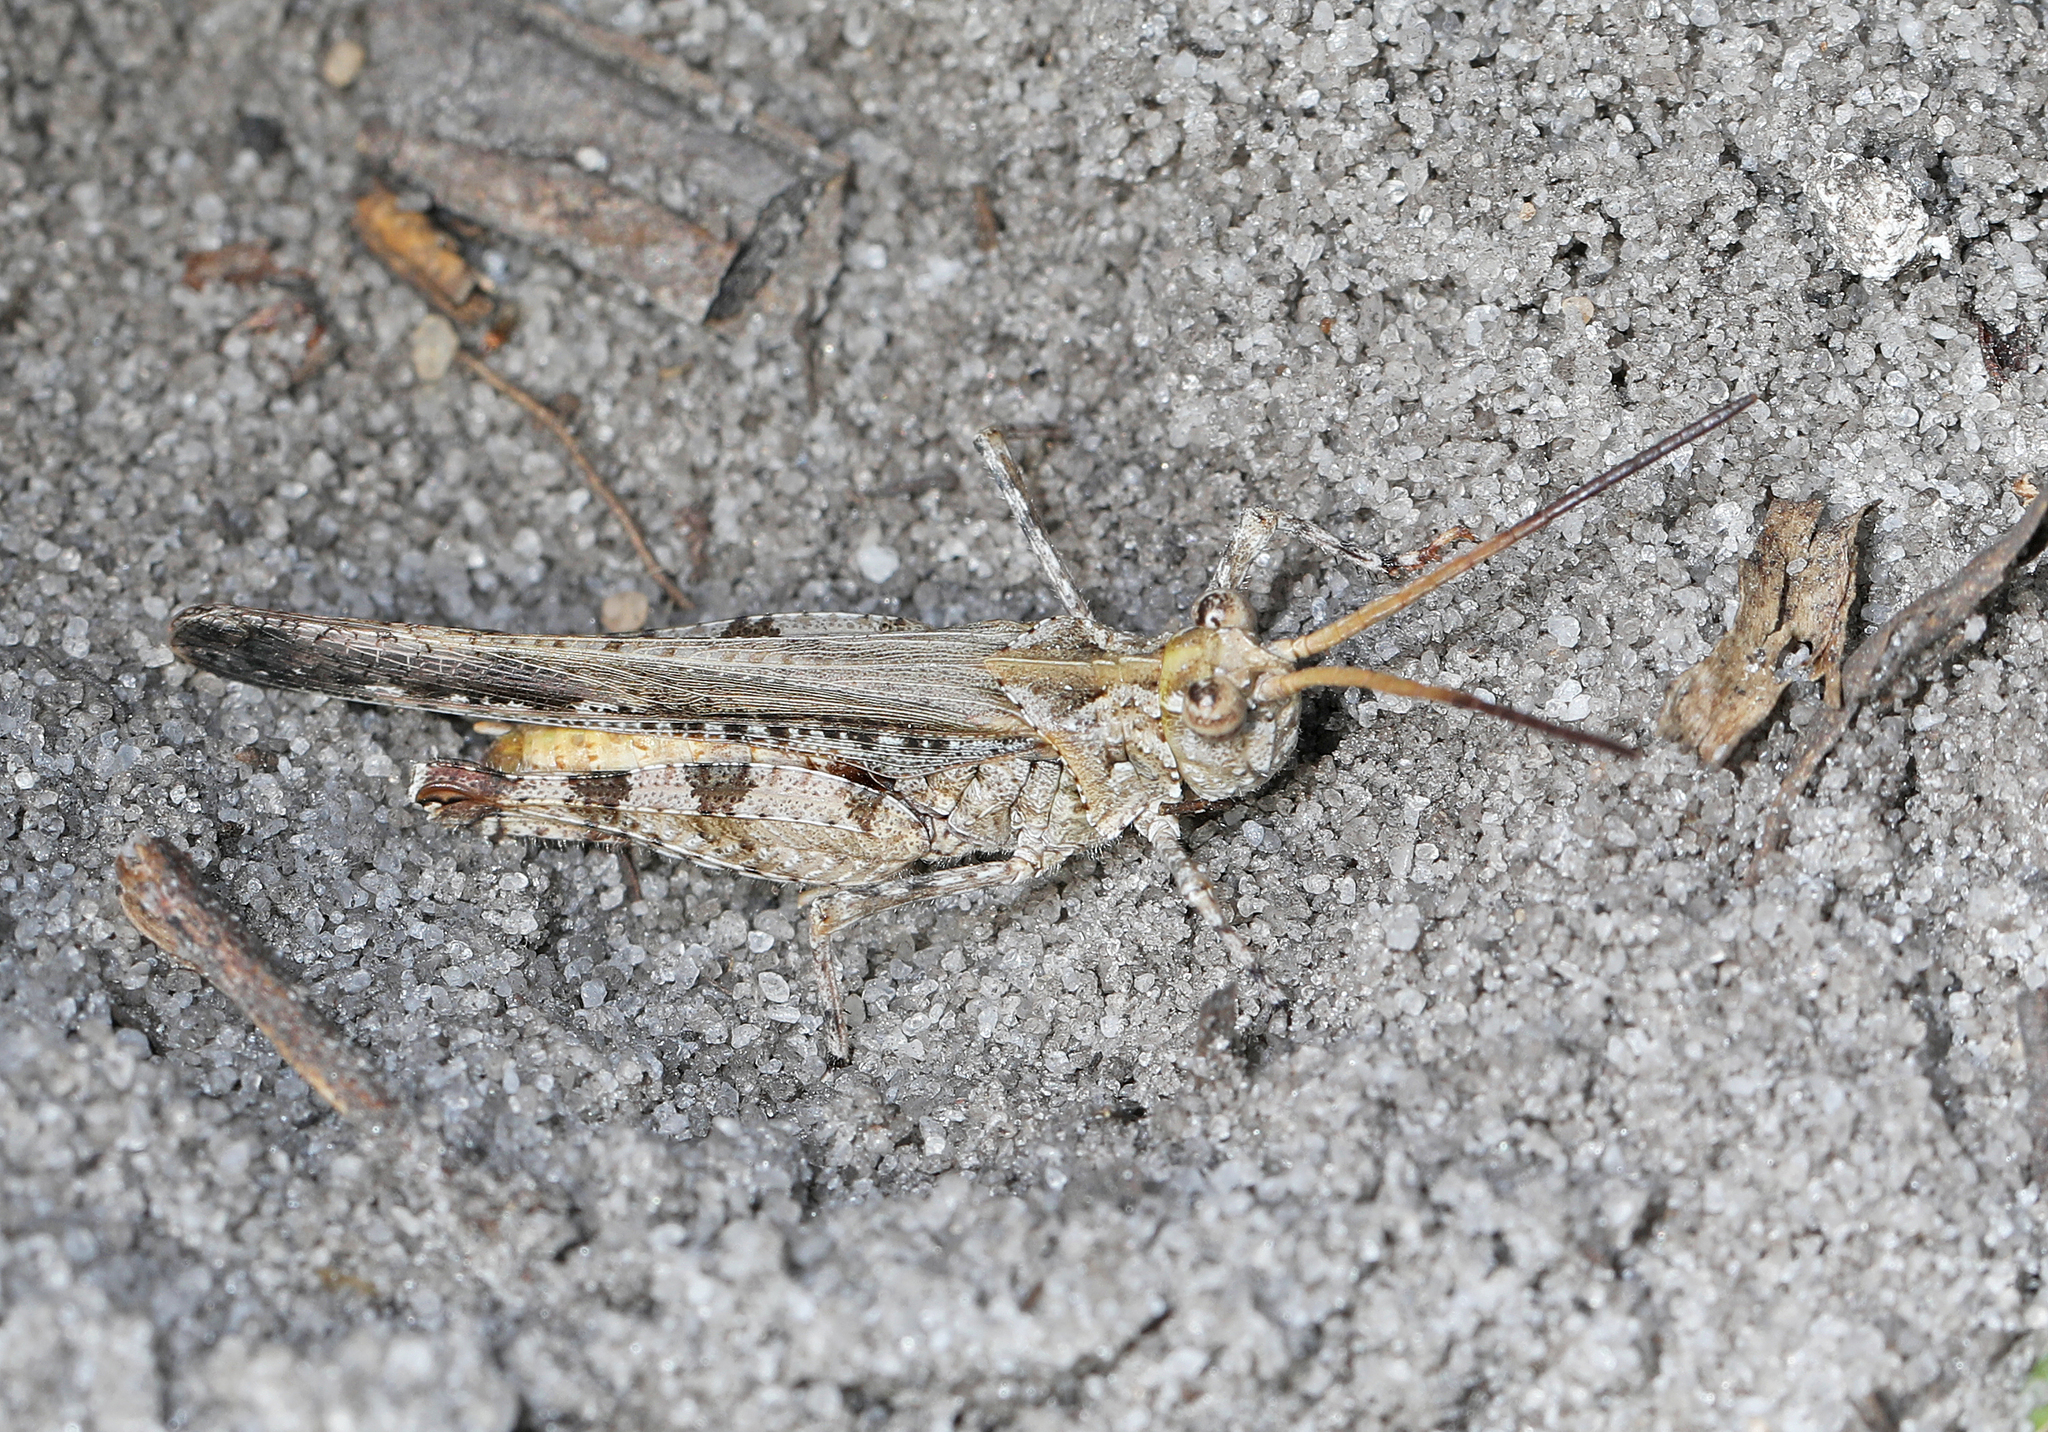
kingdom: Animalia
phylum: Arthropoda
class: Insecta
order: Orthoptera
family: Acrididae
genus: Psinidia
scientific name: Psinidia fenestralis
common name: Long-horned locust
